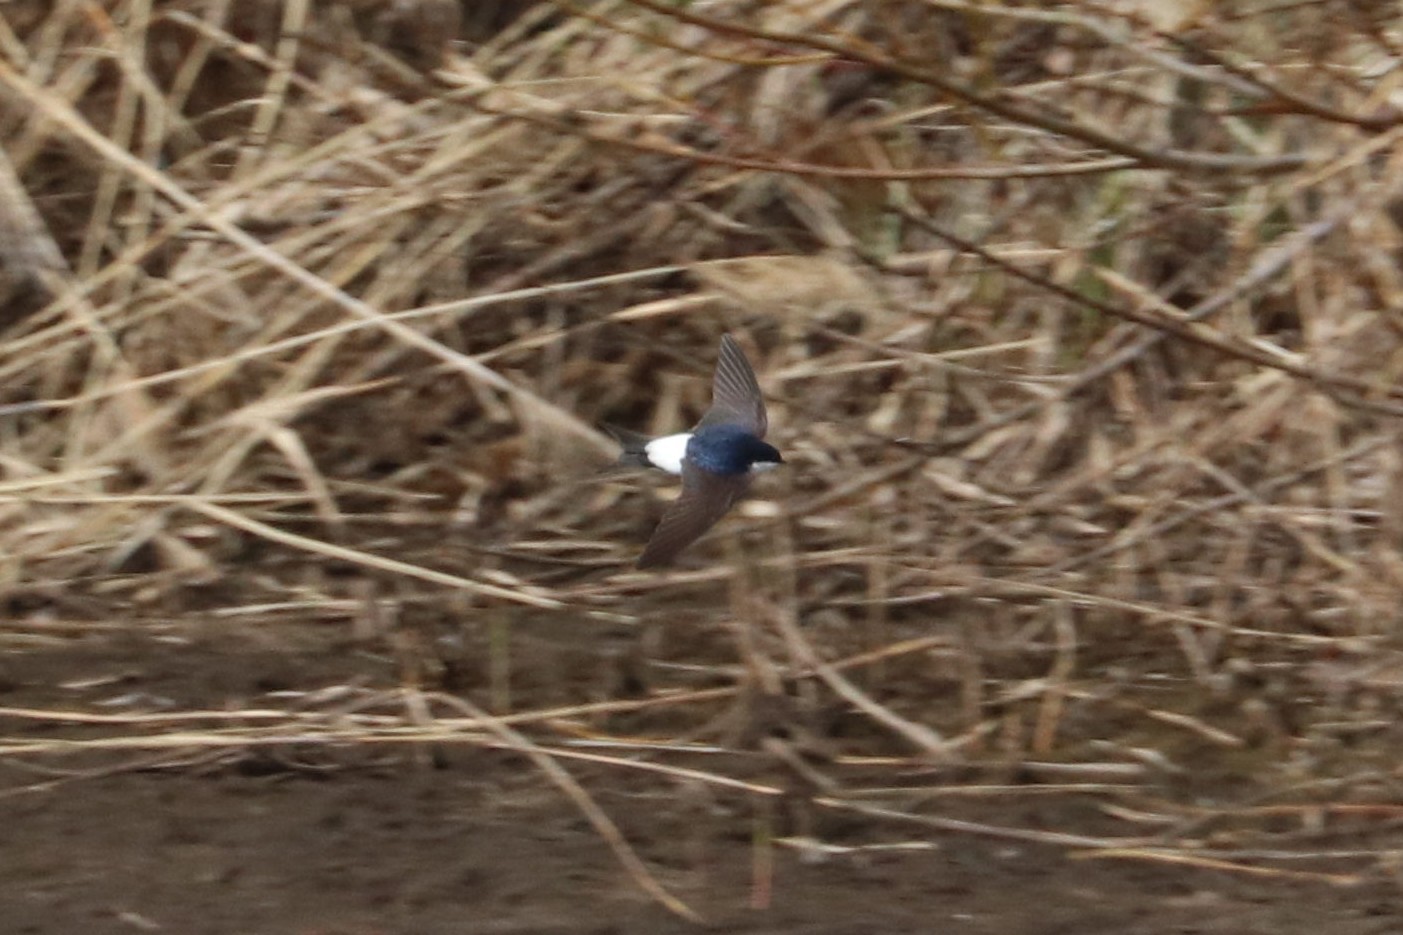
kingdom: Animalia
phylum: Chordata
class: Aves
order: Passeriformes
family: Hirundinidae
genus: Delichon
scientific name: Delichon urbicum
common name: Common house martin
